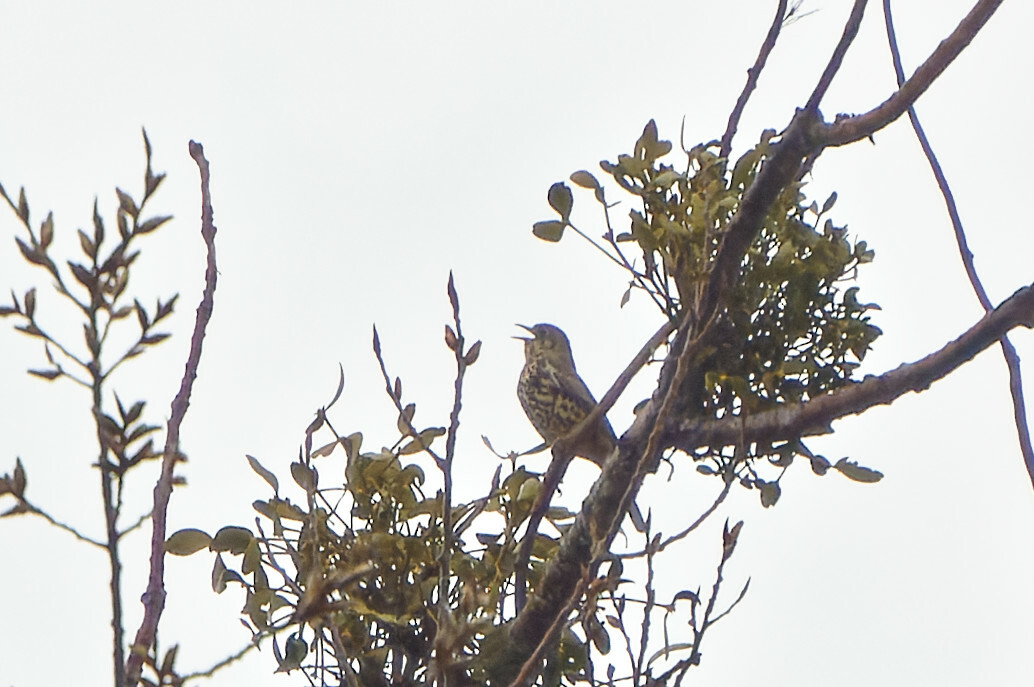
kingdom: Animalia
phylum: Chordata
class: Aves
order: Passeriformes
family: Turdidae
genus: Turdus
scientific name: Turdus viscivorus
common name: Mistle thrush
